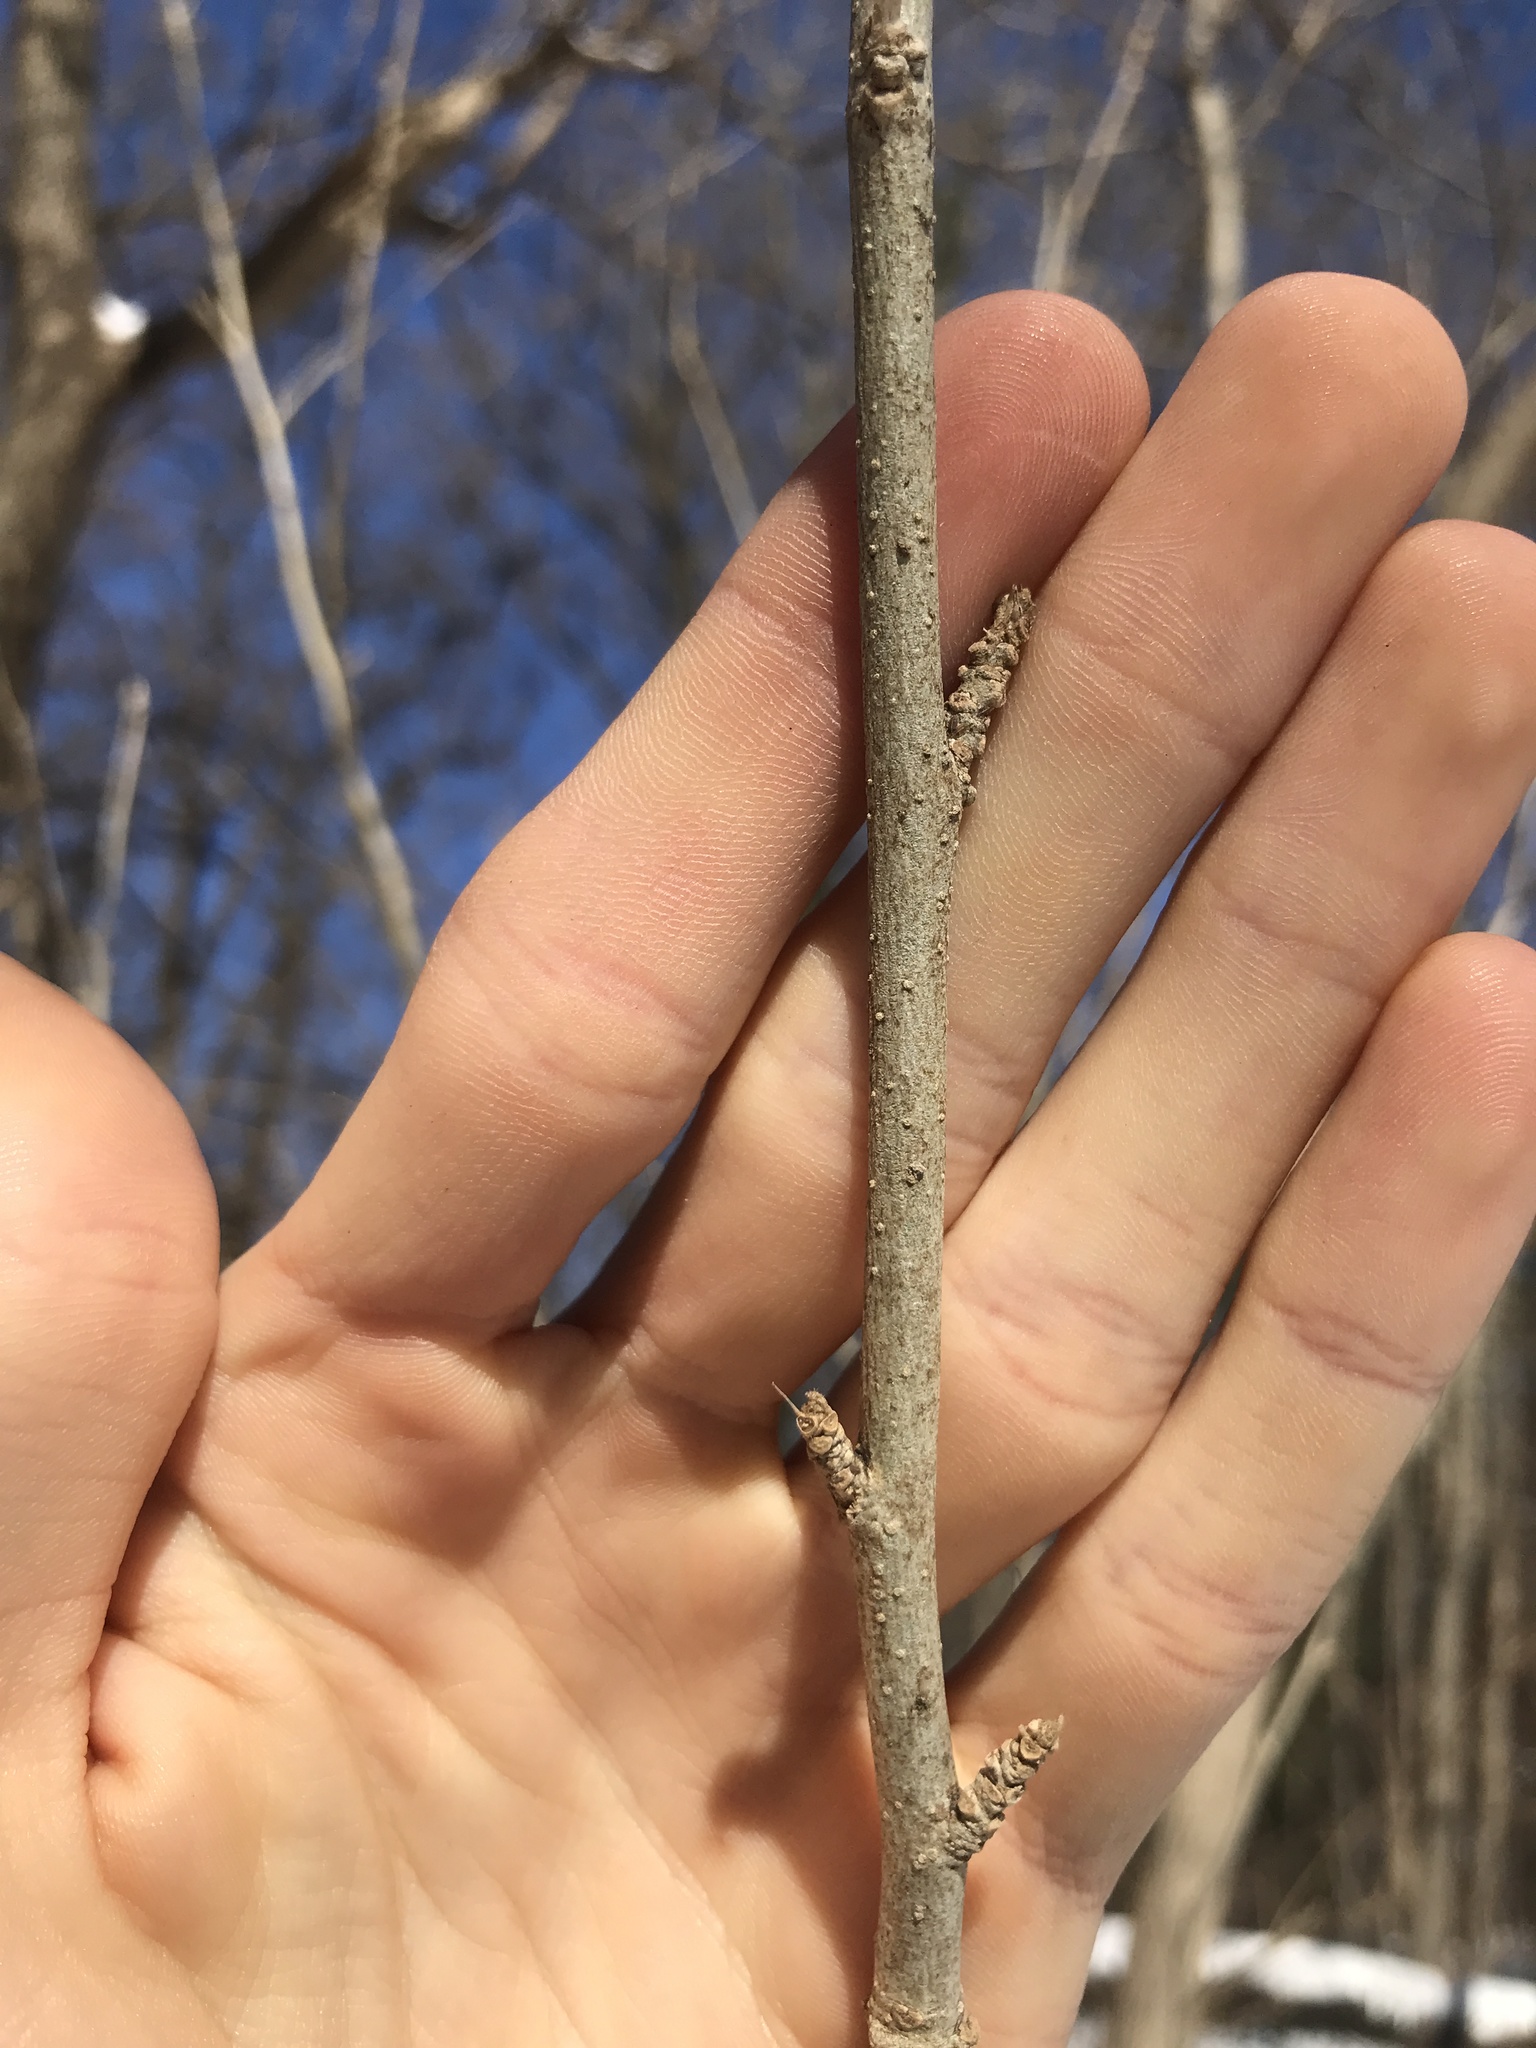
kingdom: Plantae
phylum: Tracheophyta
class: Magnoliopsida
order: Malvales
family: Malvaceae
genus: Hibiscus
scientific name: Hibiscus syriacus
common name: Syrian ketmia
